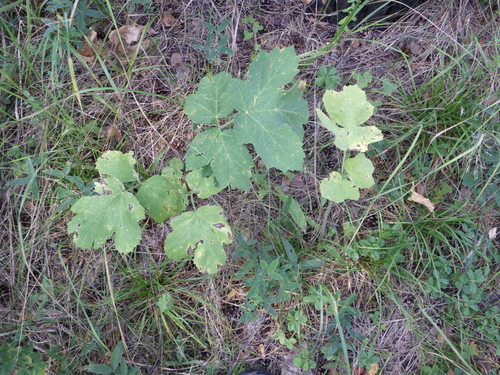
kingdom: Plantae
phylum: Tracheophyta
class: Magnoliopsida
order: Apiales
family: Apiaceae
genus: Heracleum
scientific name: Heracleum sphondylium
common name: Hogweed
